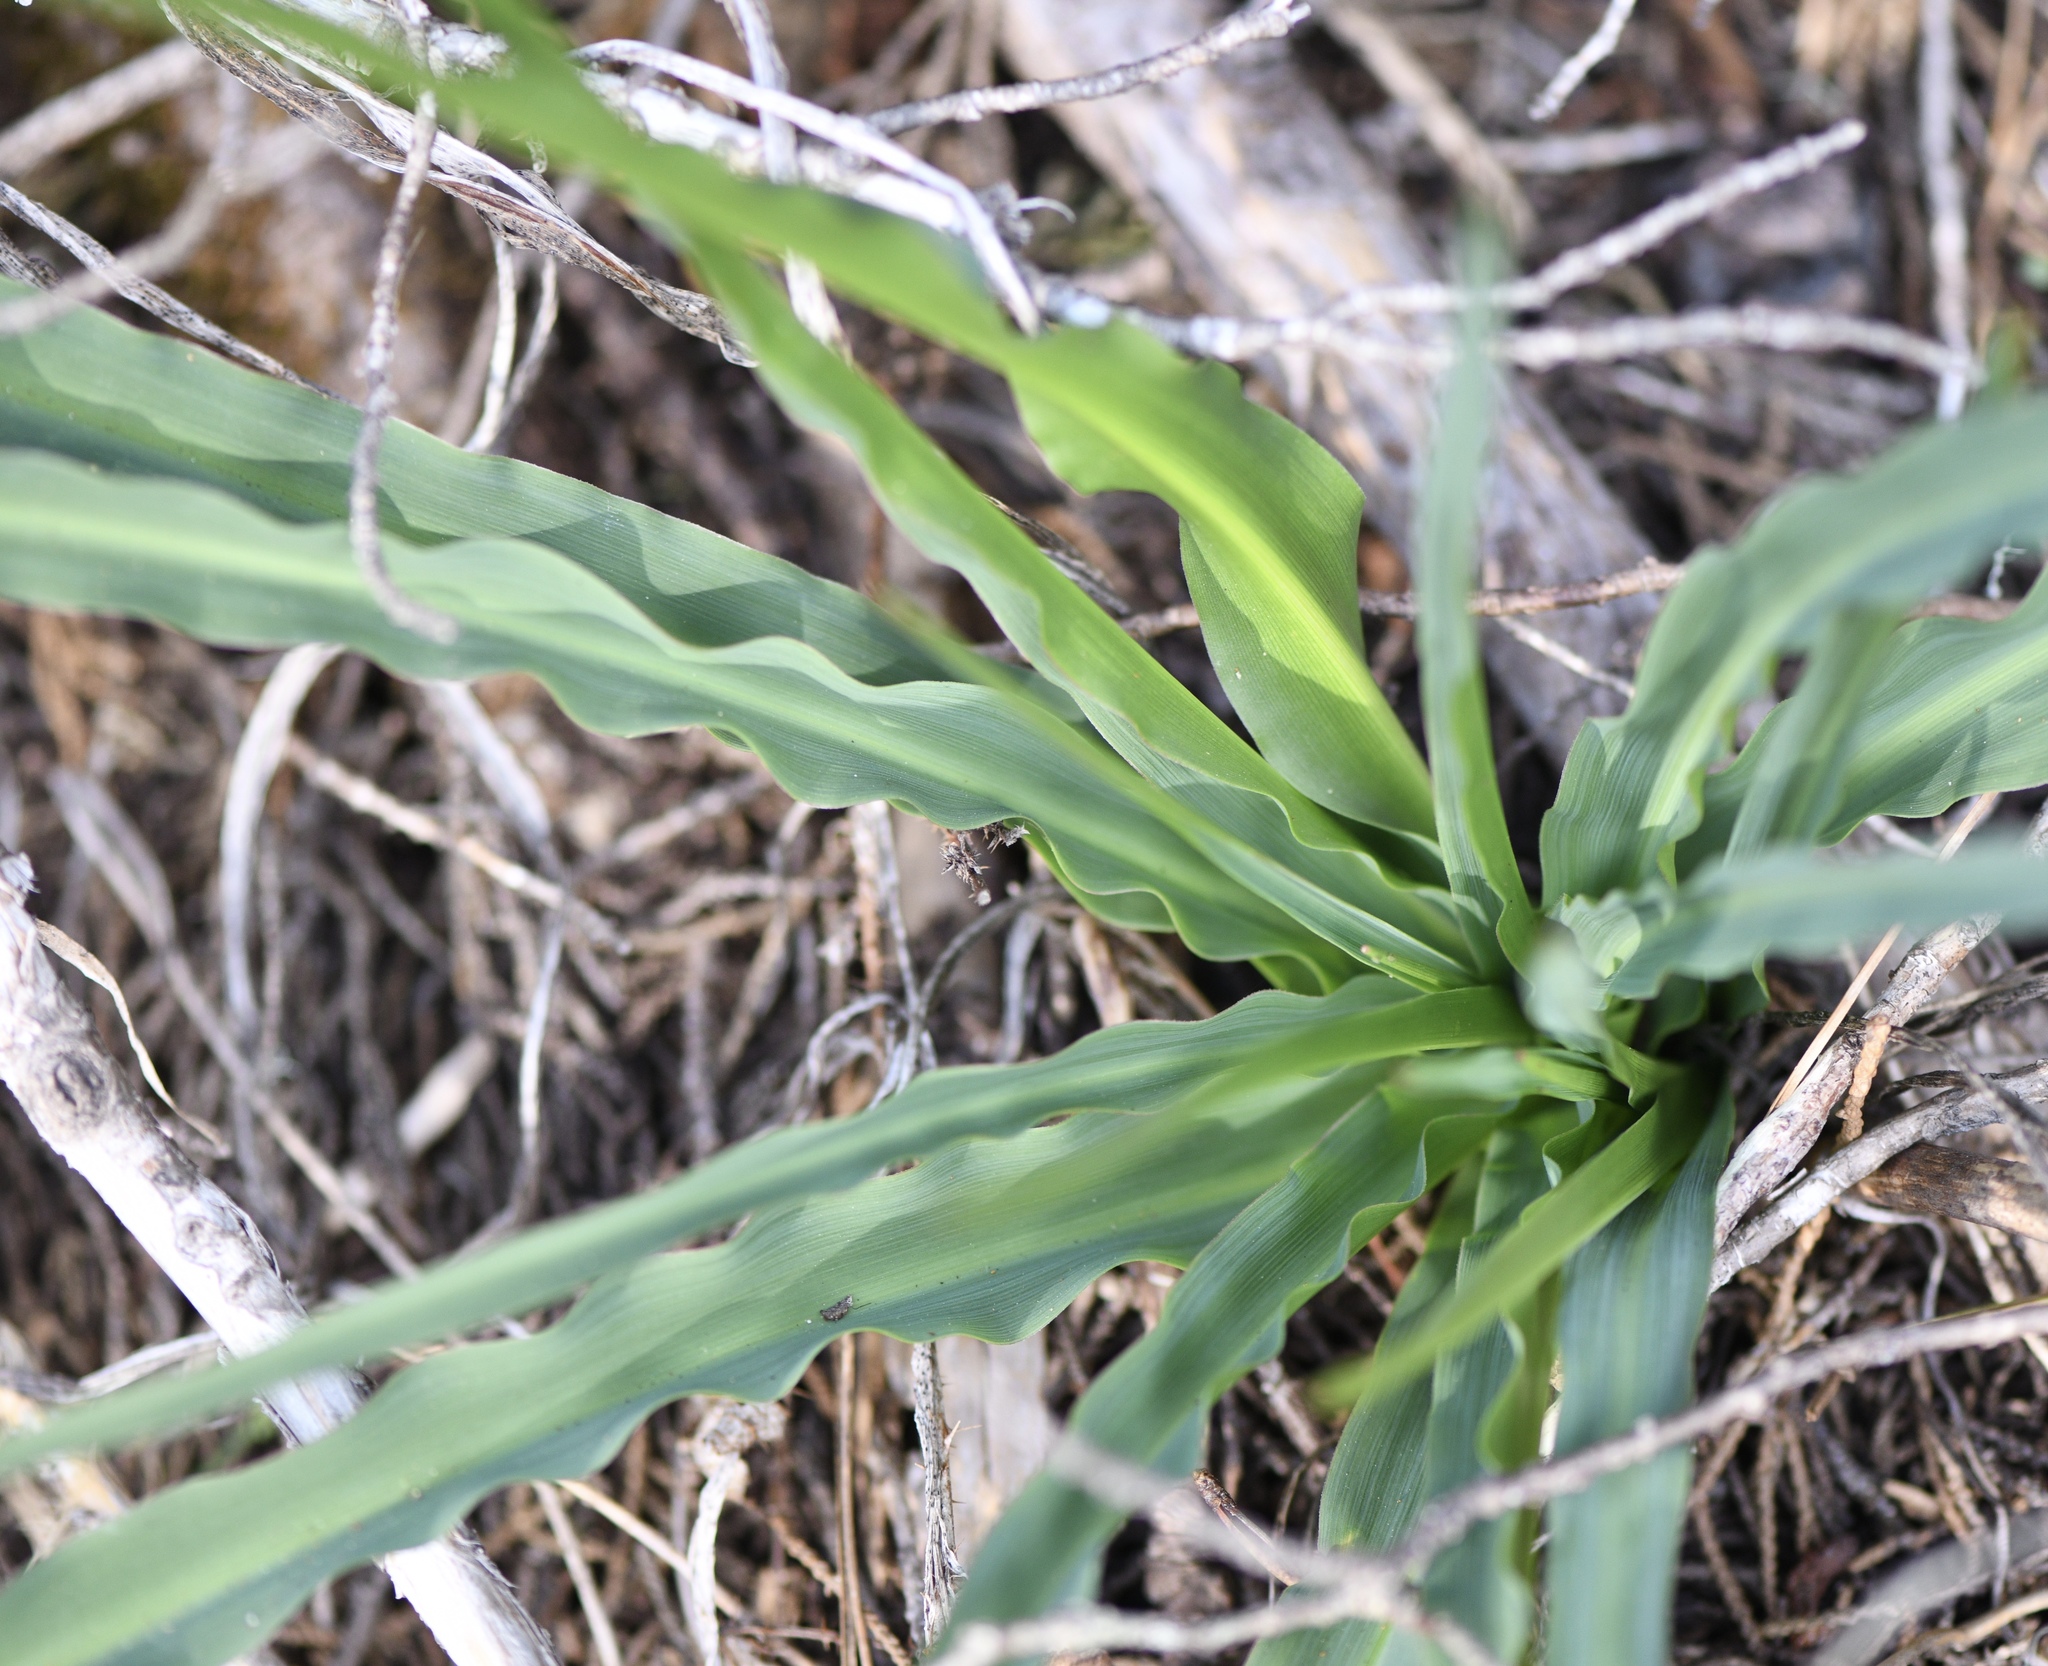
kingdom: Plantae
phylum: Tracheophyta
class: Liliopsida
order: Asparagales
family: Asparagaceae
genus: Chlorogalum
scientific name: Chlorogalum pomeridianum
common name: Amole
